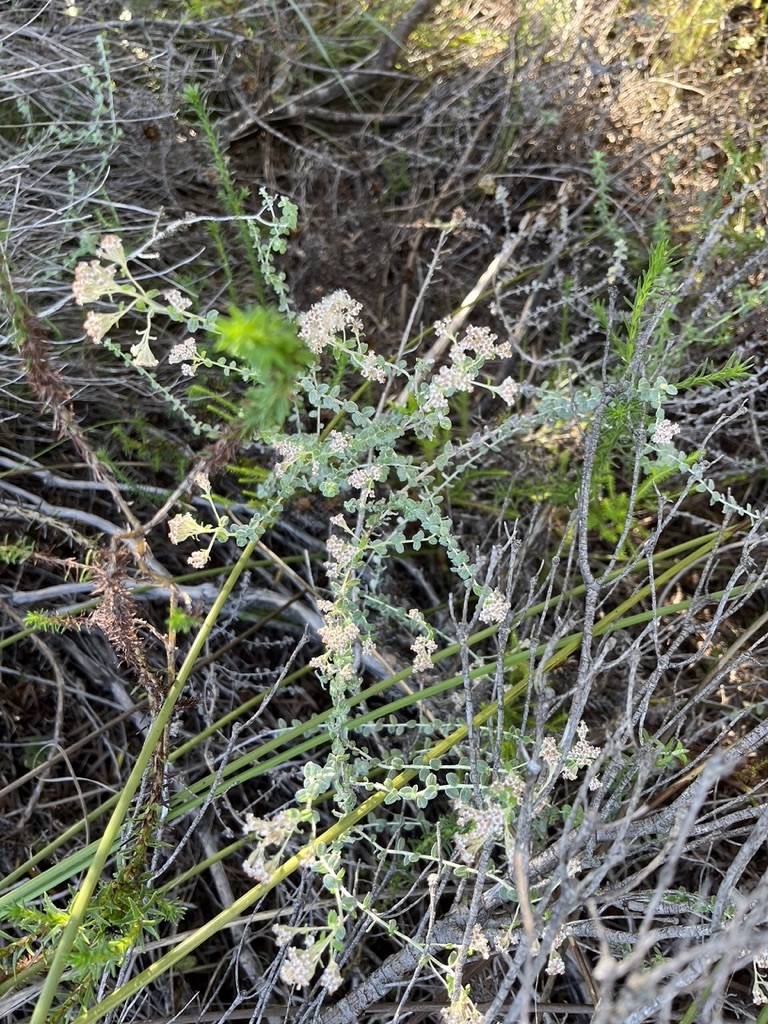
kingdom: Plantae
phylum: Tracheophyta
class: Magnoliopsida
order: Asterales
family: Asteraceae
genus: Plecostachys
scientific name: Plecostachys serpyllifolia
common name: Petite licorice
